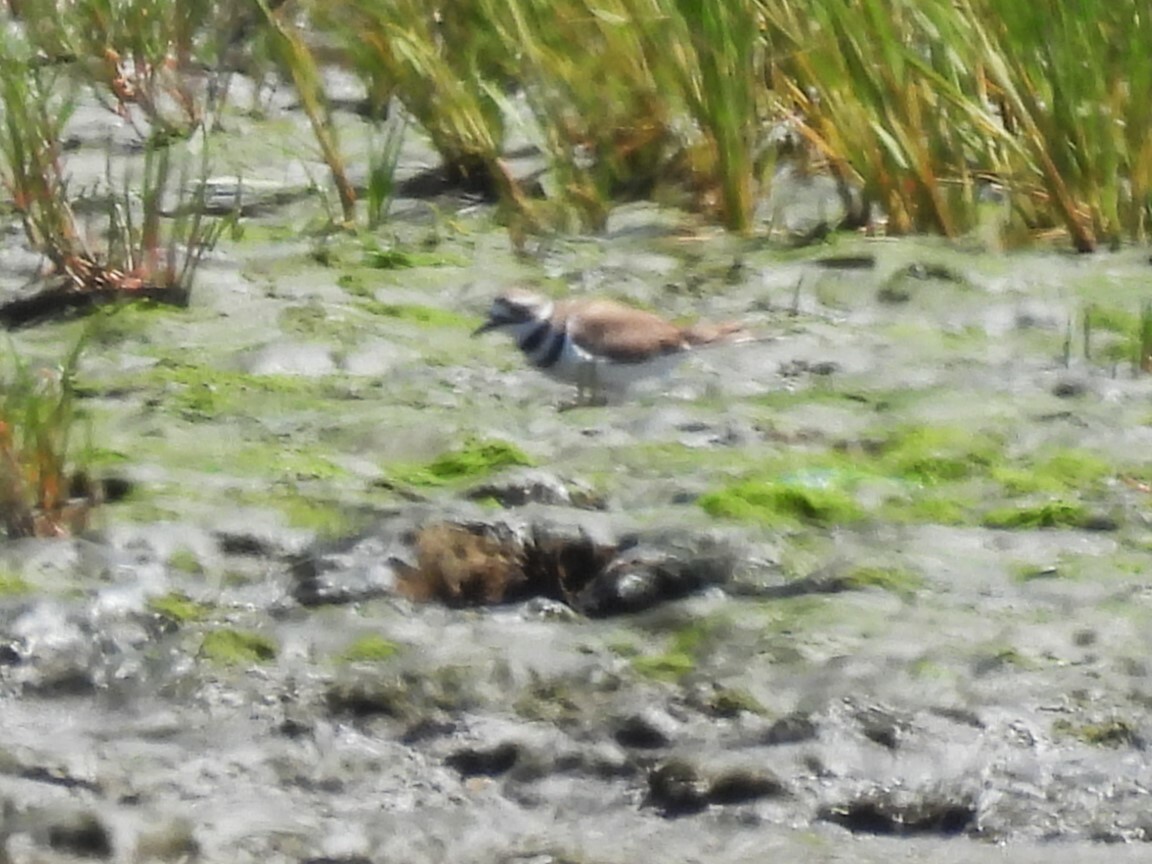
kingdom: Animalia
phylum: Chordata
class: Aves
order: Charadriiformes
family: Charadriidae
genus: Charadrius
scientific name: Charadrius vociferus
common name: Killdeer
